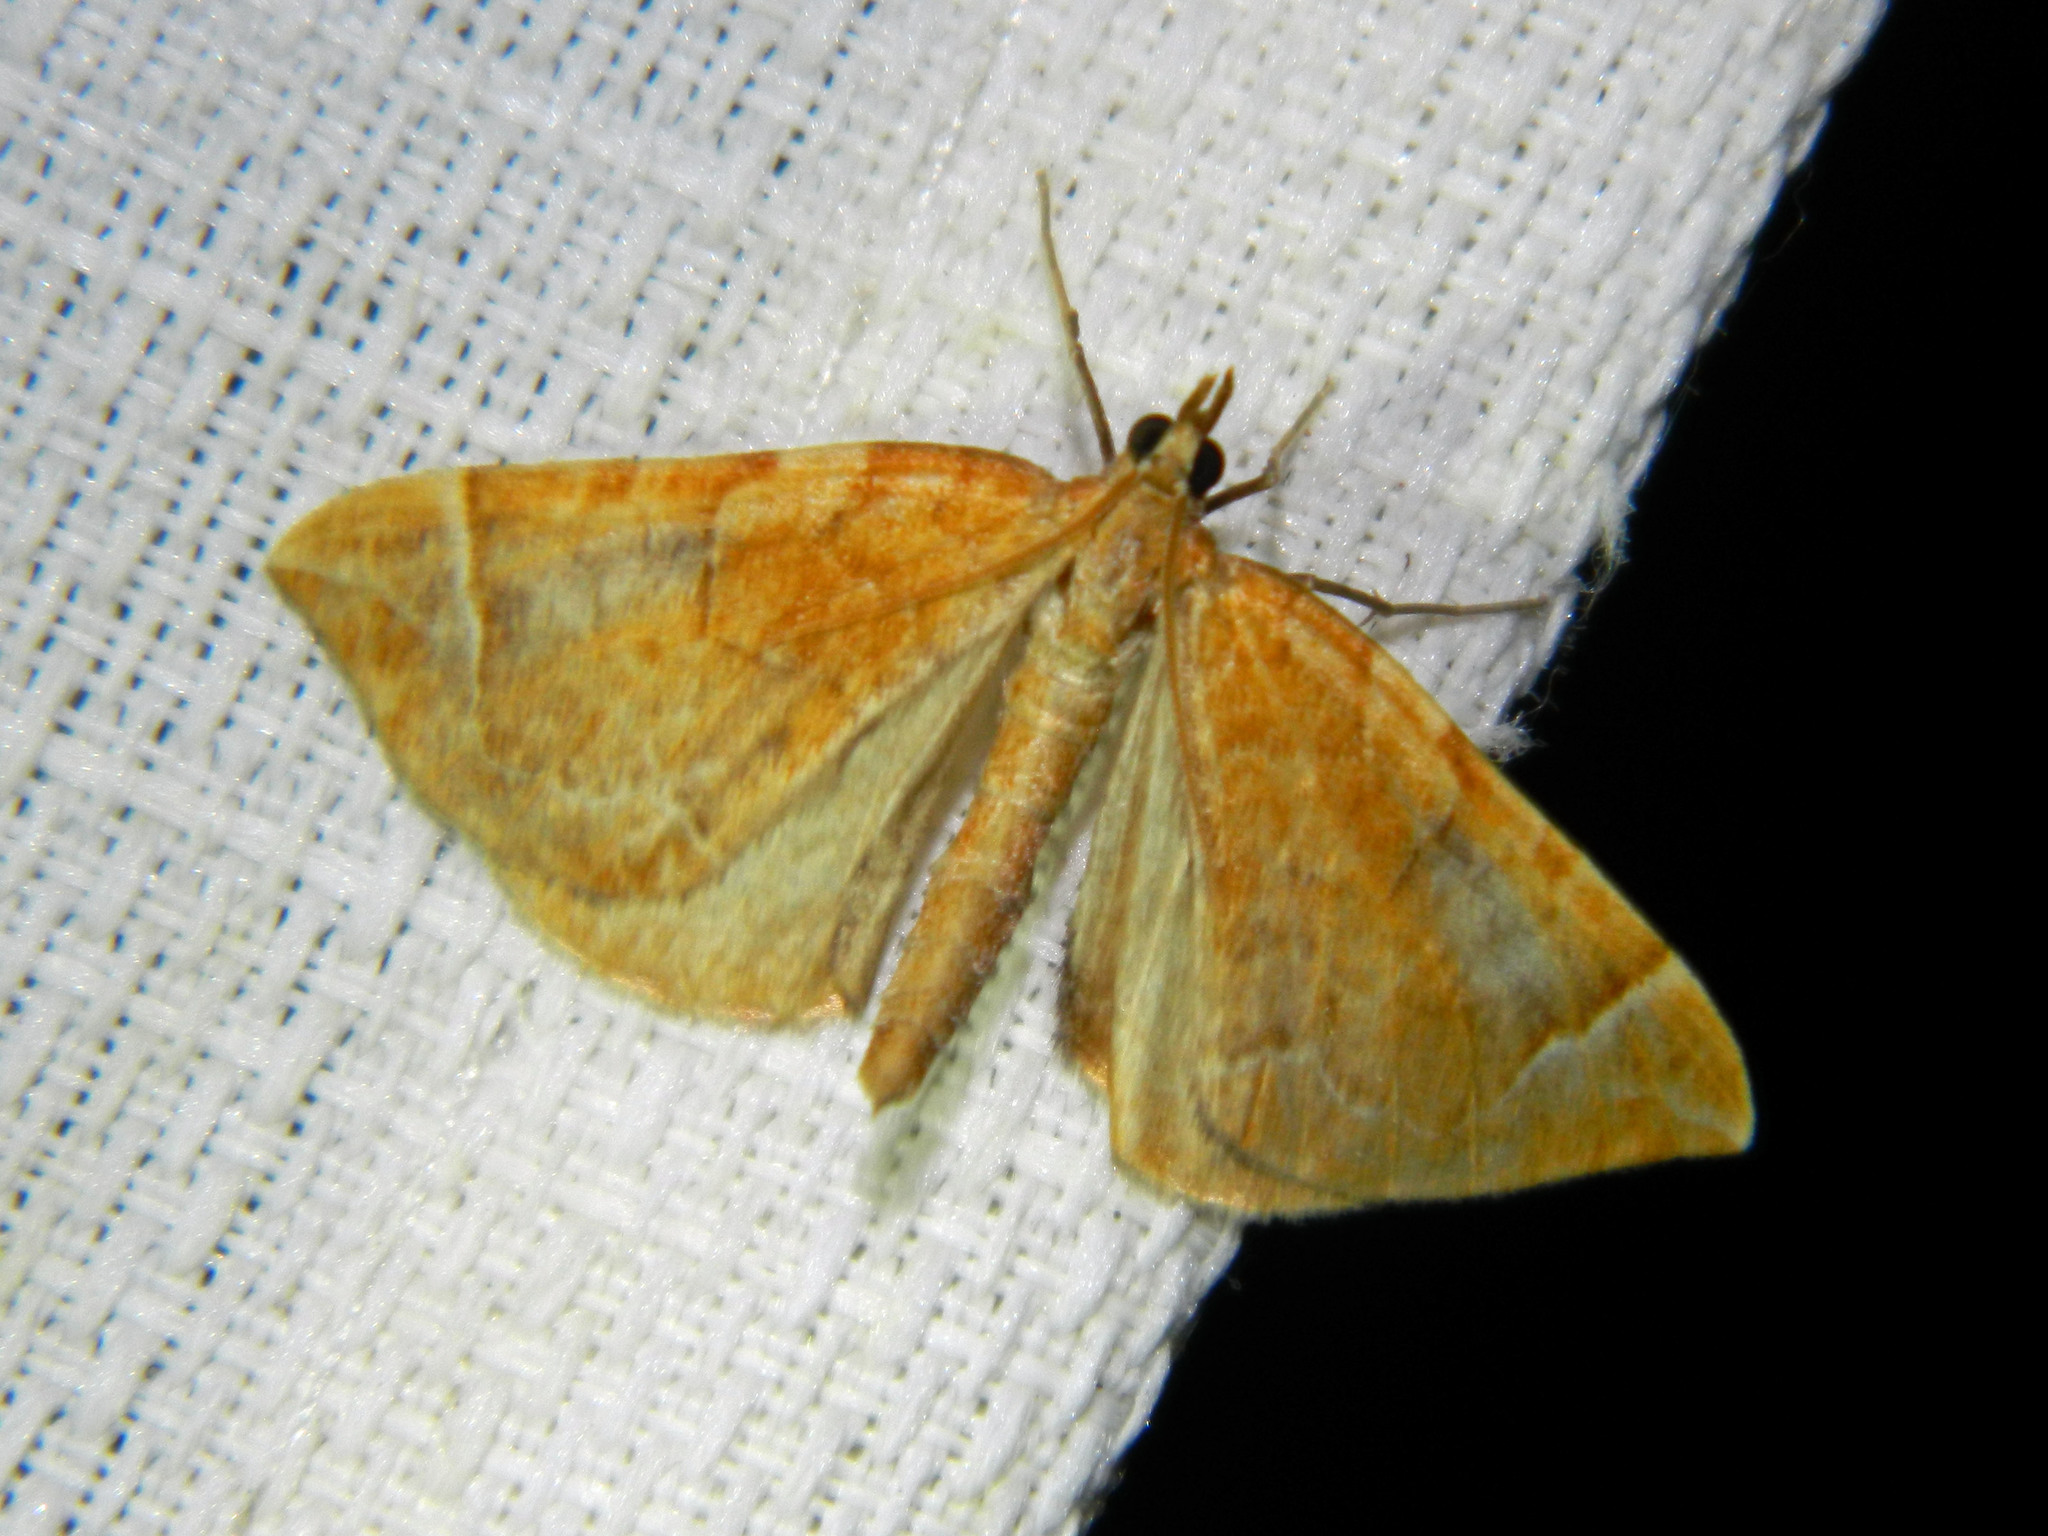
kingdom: Animalia
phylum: Arthropoda
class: Insecta
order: Lepidoptera
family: Geometridae
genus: Eulithis
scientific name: Eulithis testata
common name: Chevron
